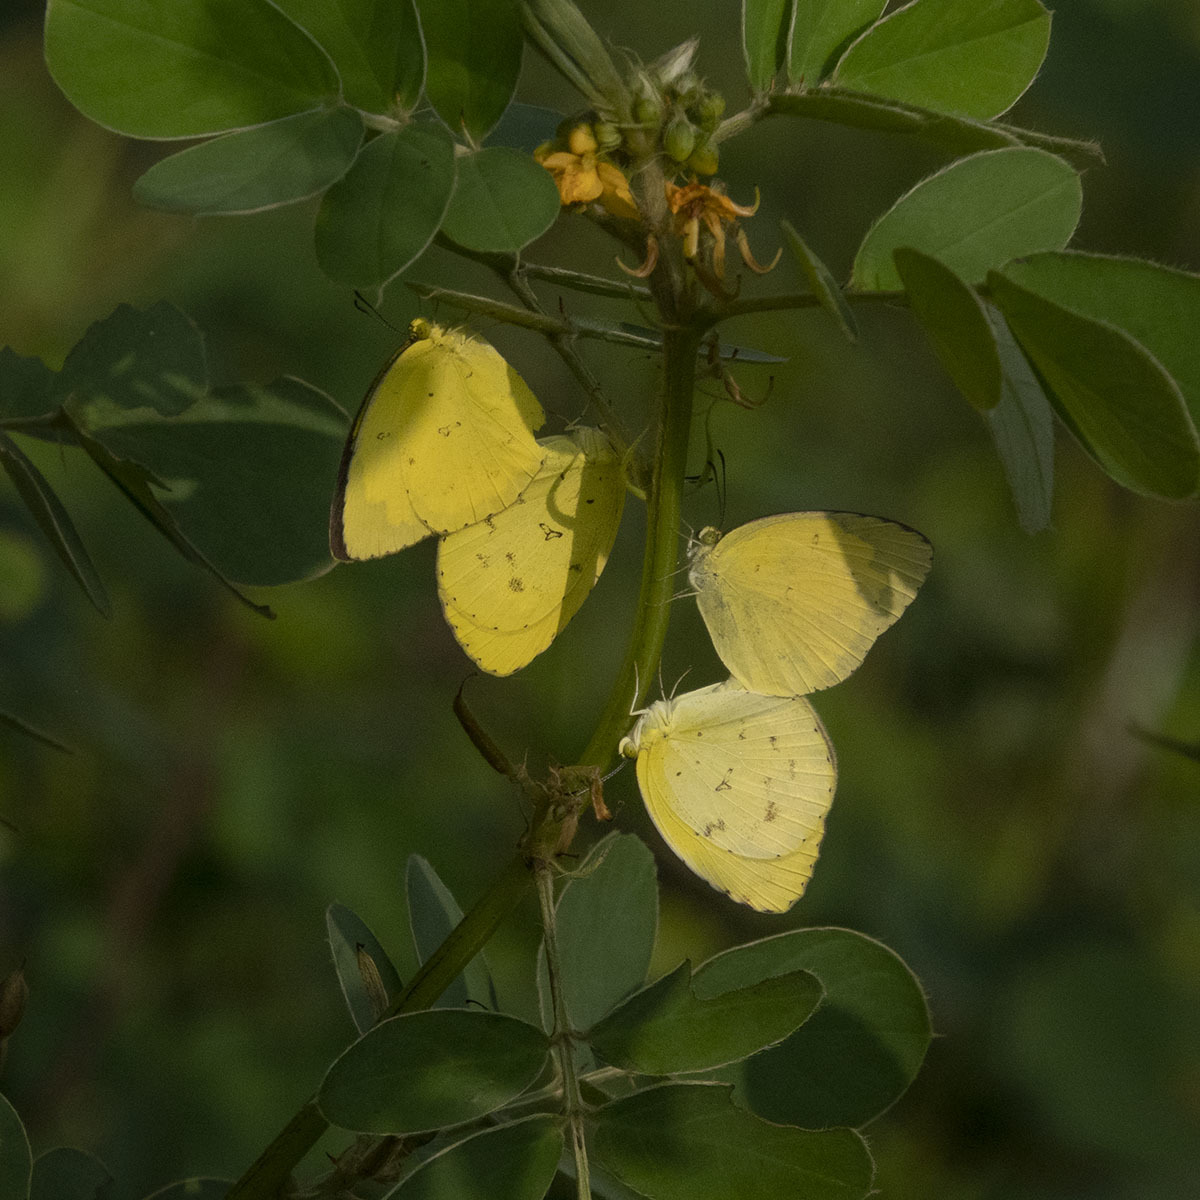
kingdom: Animalia
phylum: Arthropoda
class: Insecta
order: Lepidoptera
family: Pieridae
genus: Eurema
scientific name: Eurema hecabe
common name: Pale grass yellow
